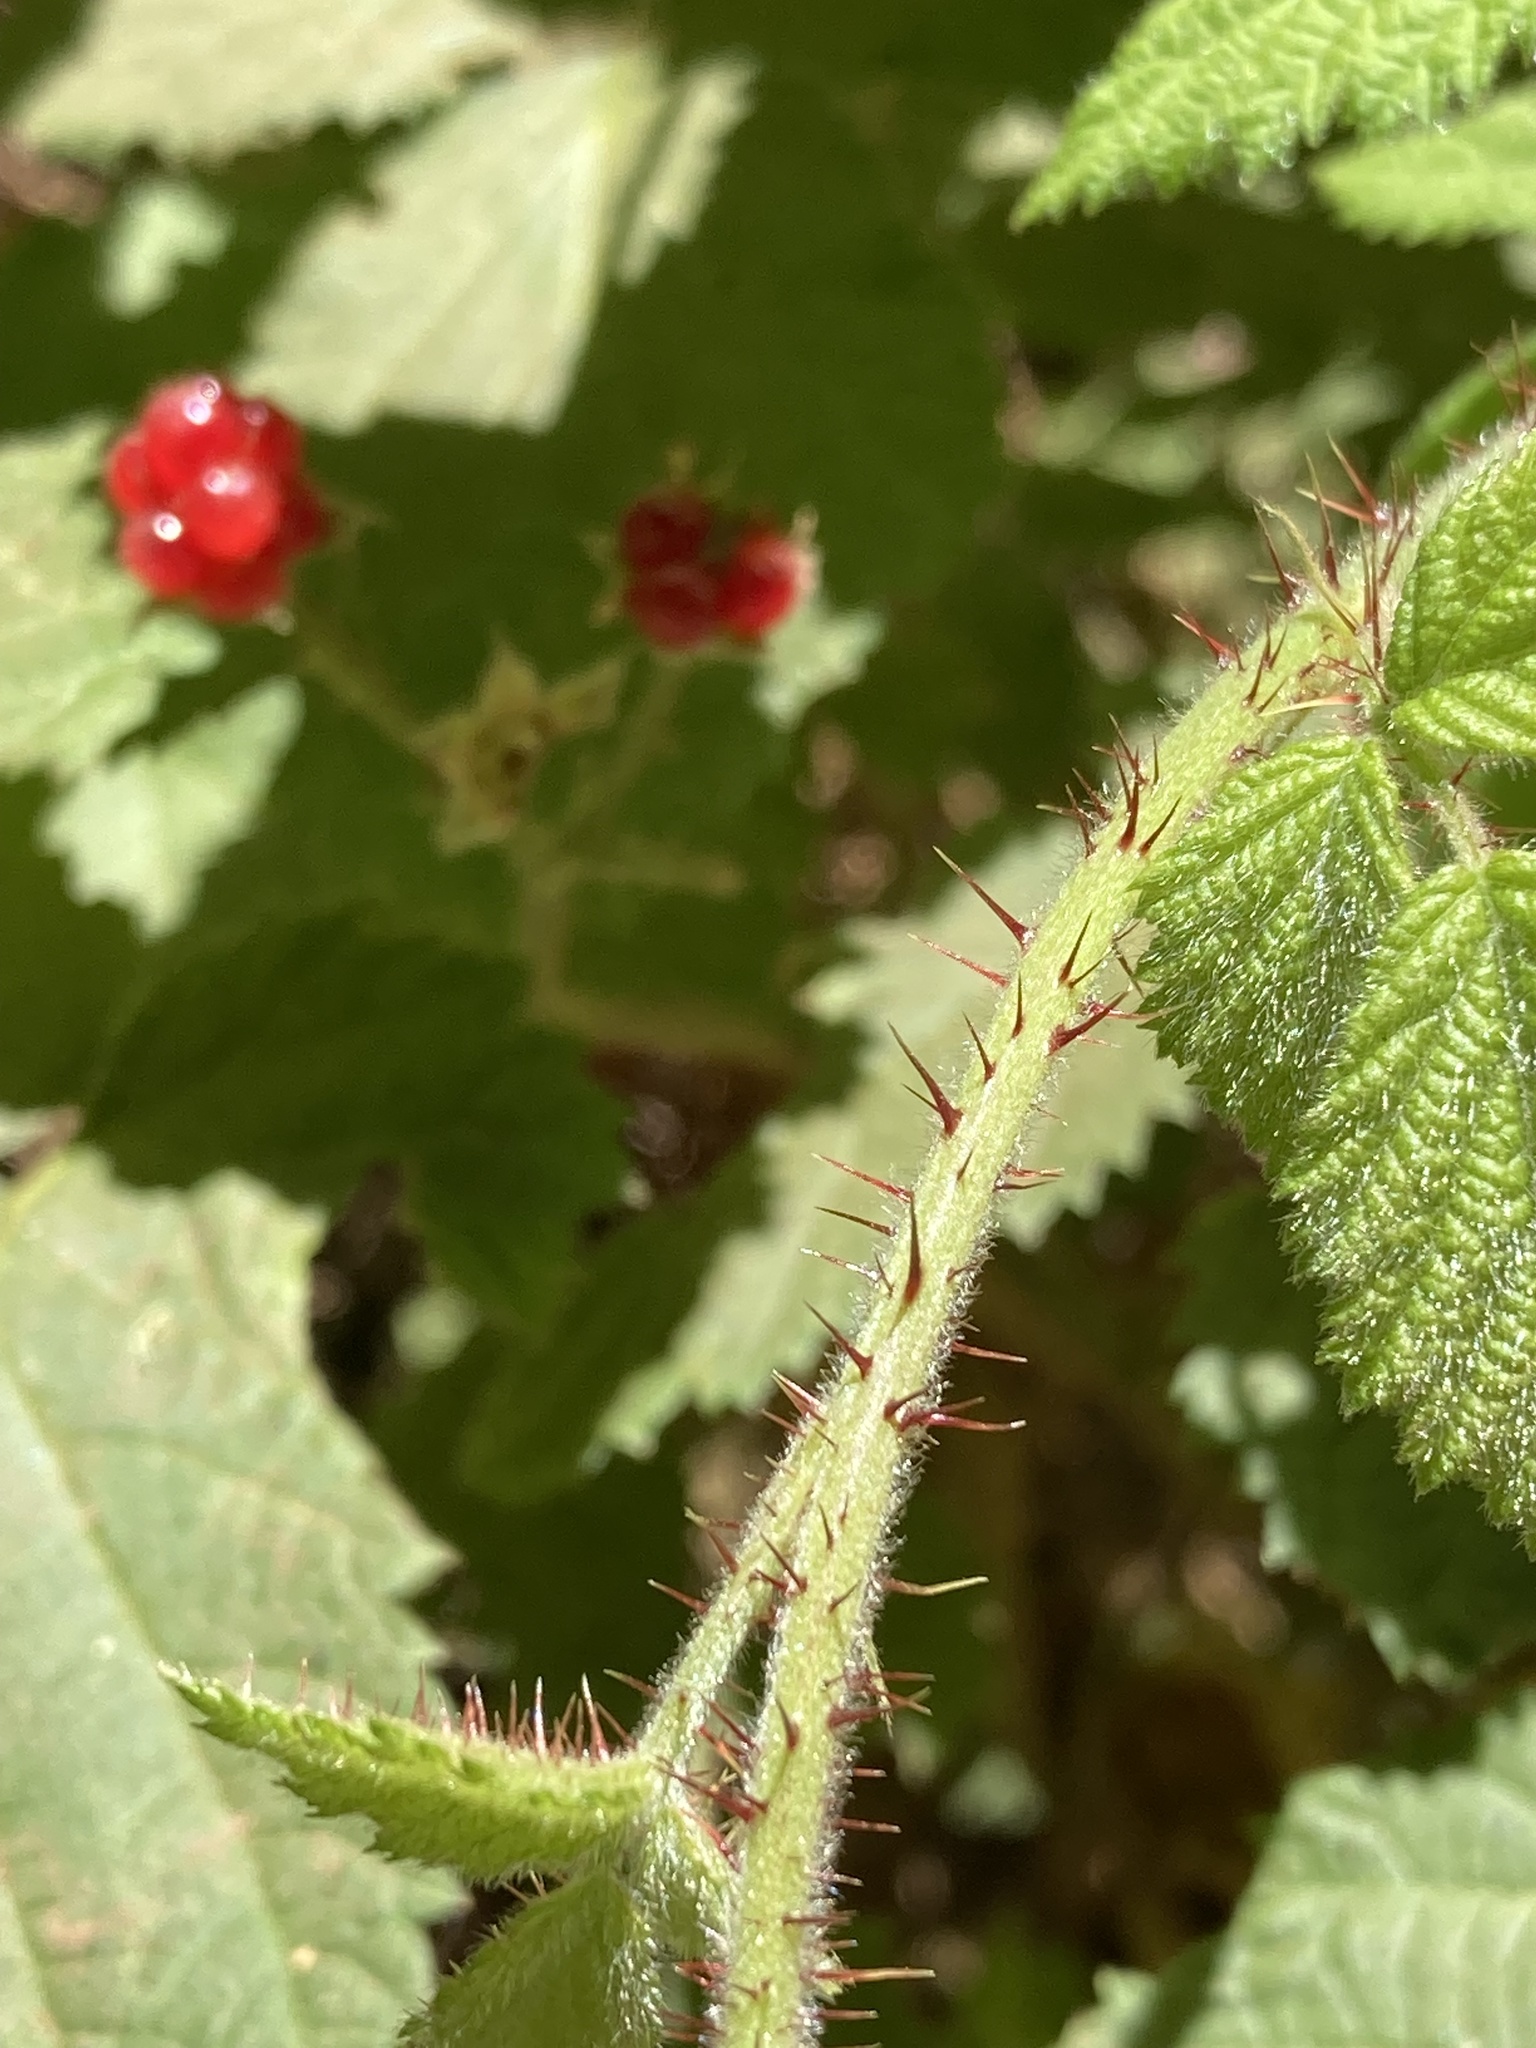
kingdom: Plantae
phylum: Tracheophyta
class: Magnoliopsida
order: Rosales
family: Rosaceae
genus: Rubus
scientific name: Rubus ursinus
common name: Pacific blackberry
